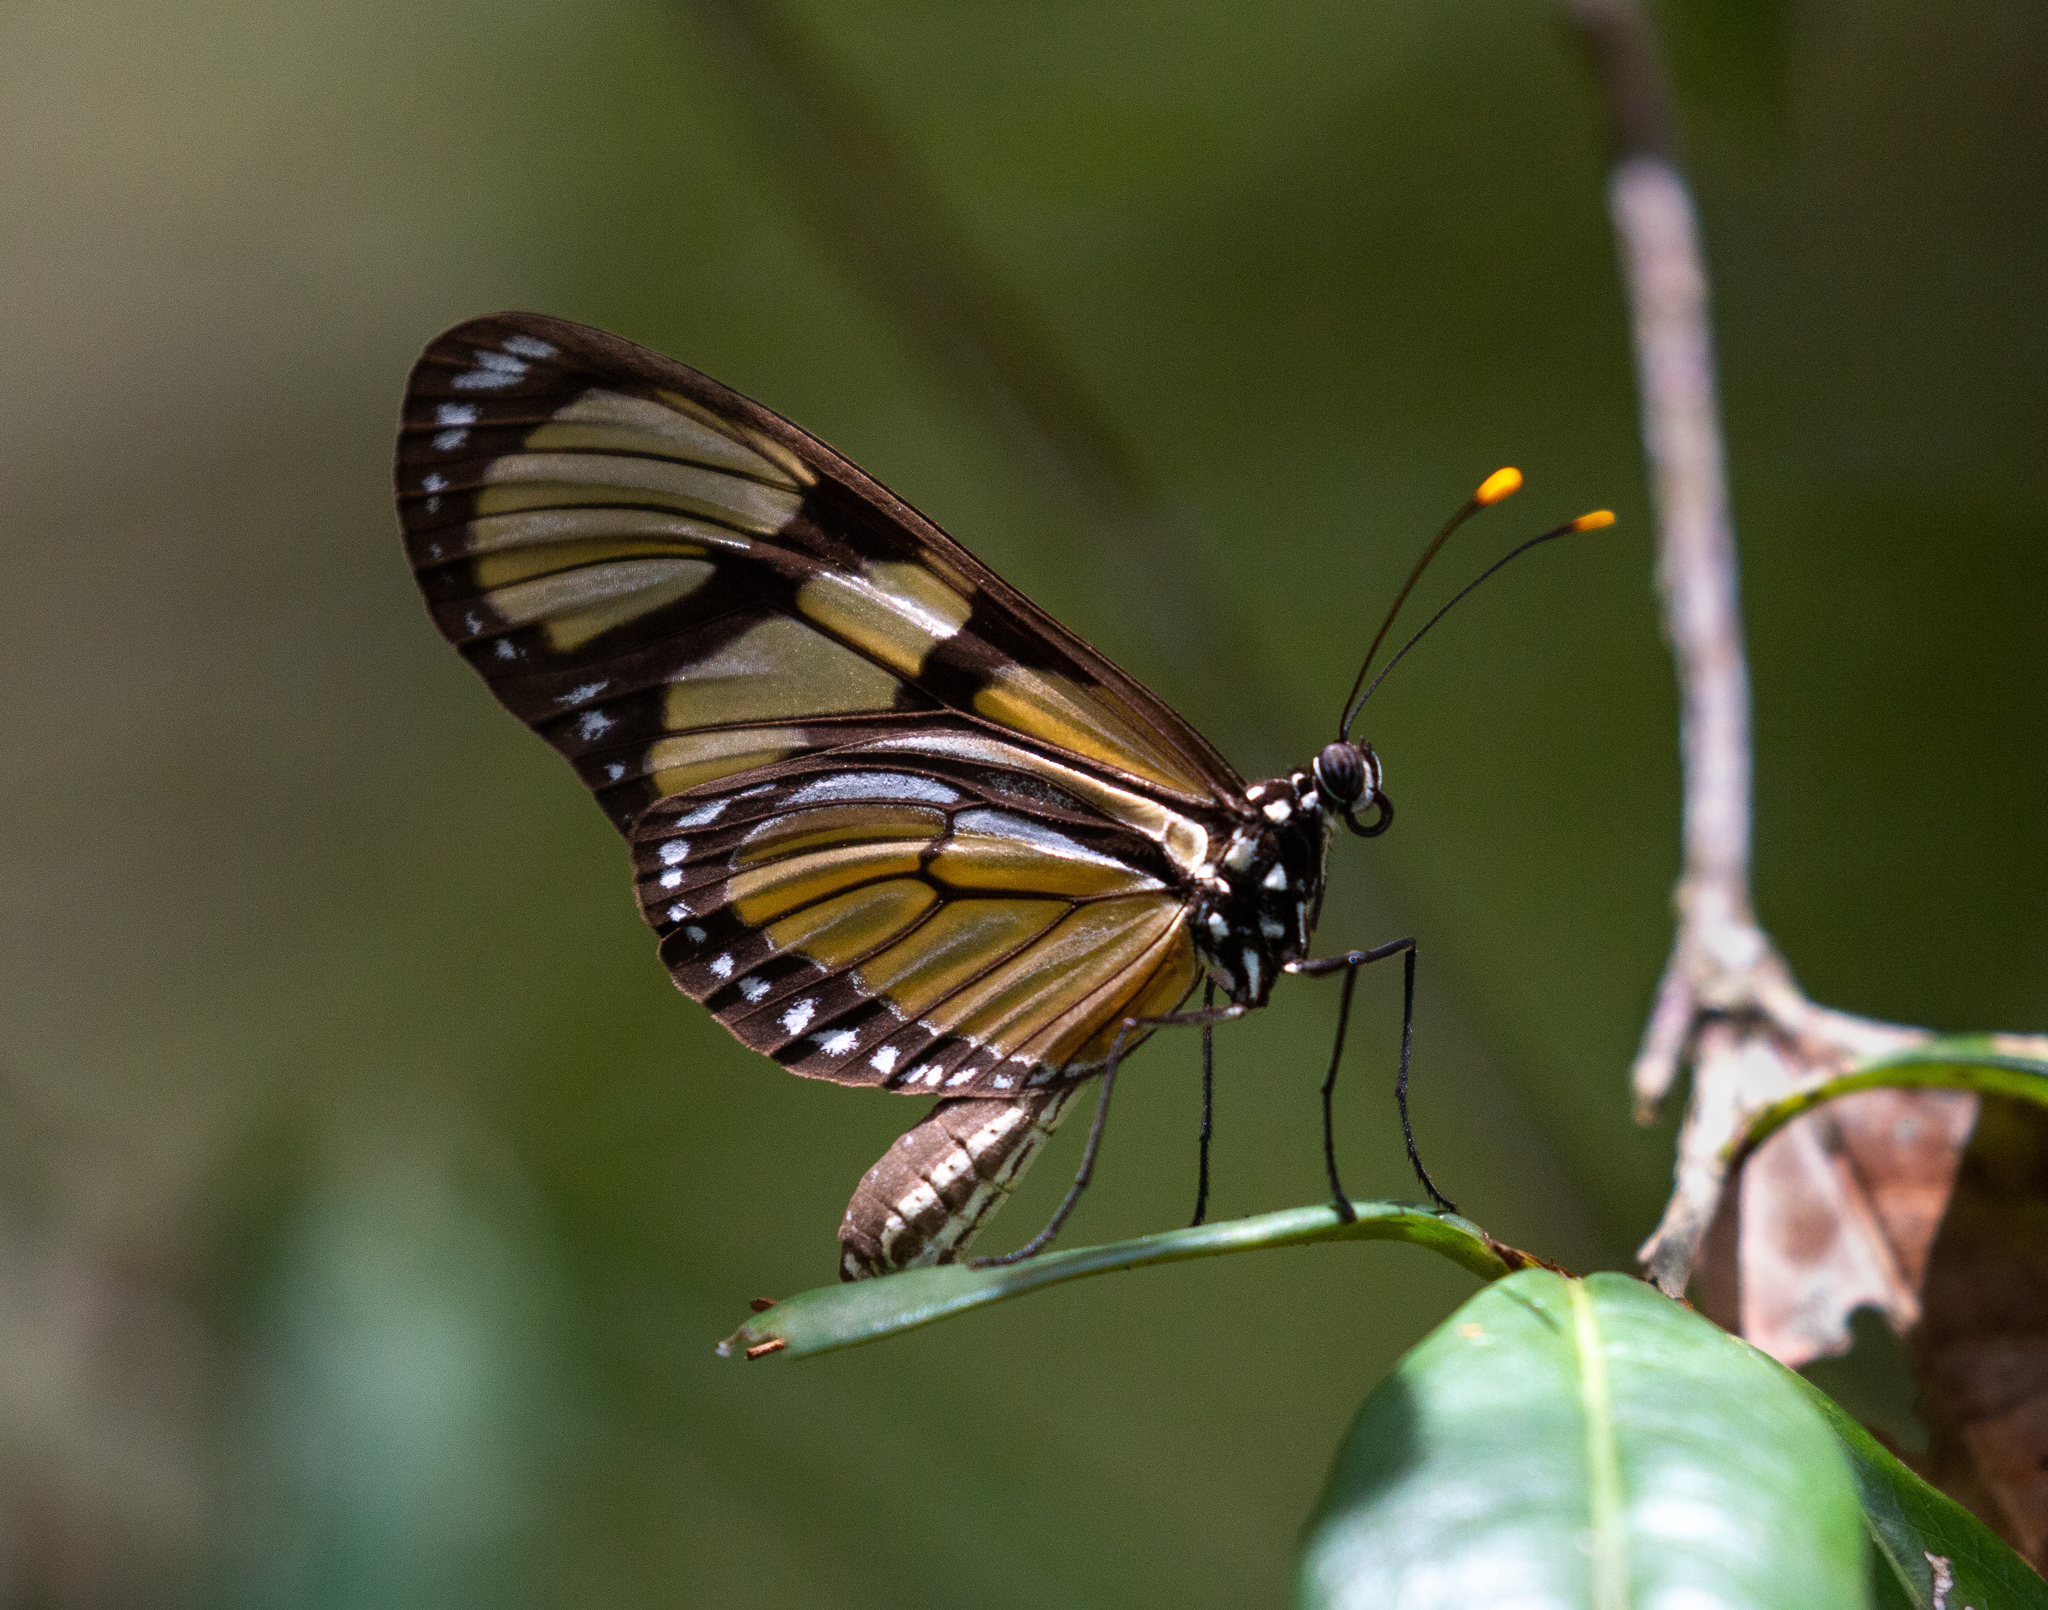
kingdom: Animalia
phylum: Arthropoda
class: Insecta
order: Lepidoptera
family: Nymphalidae
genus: Methona
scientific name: Methona singularis
